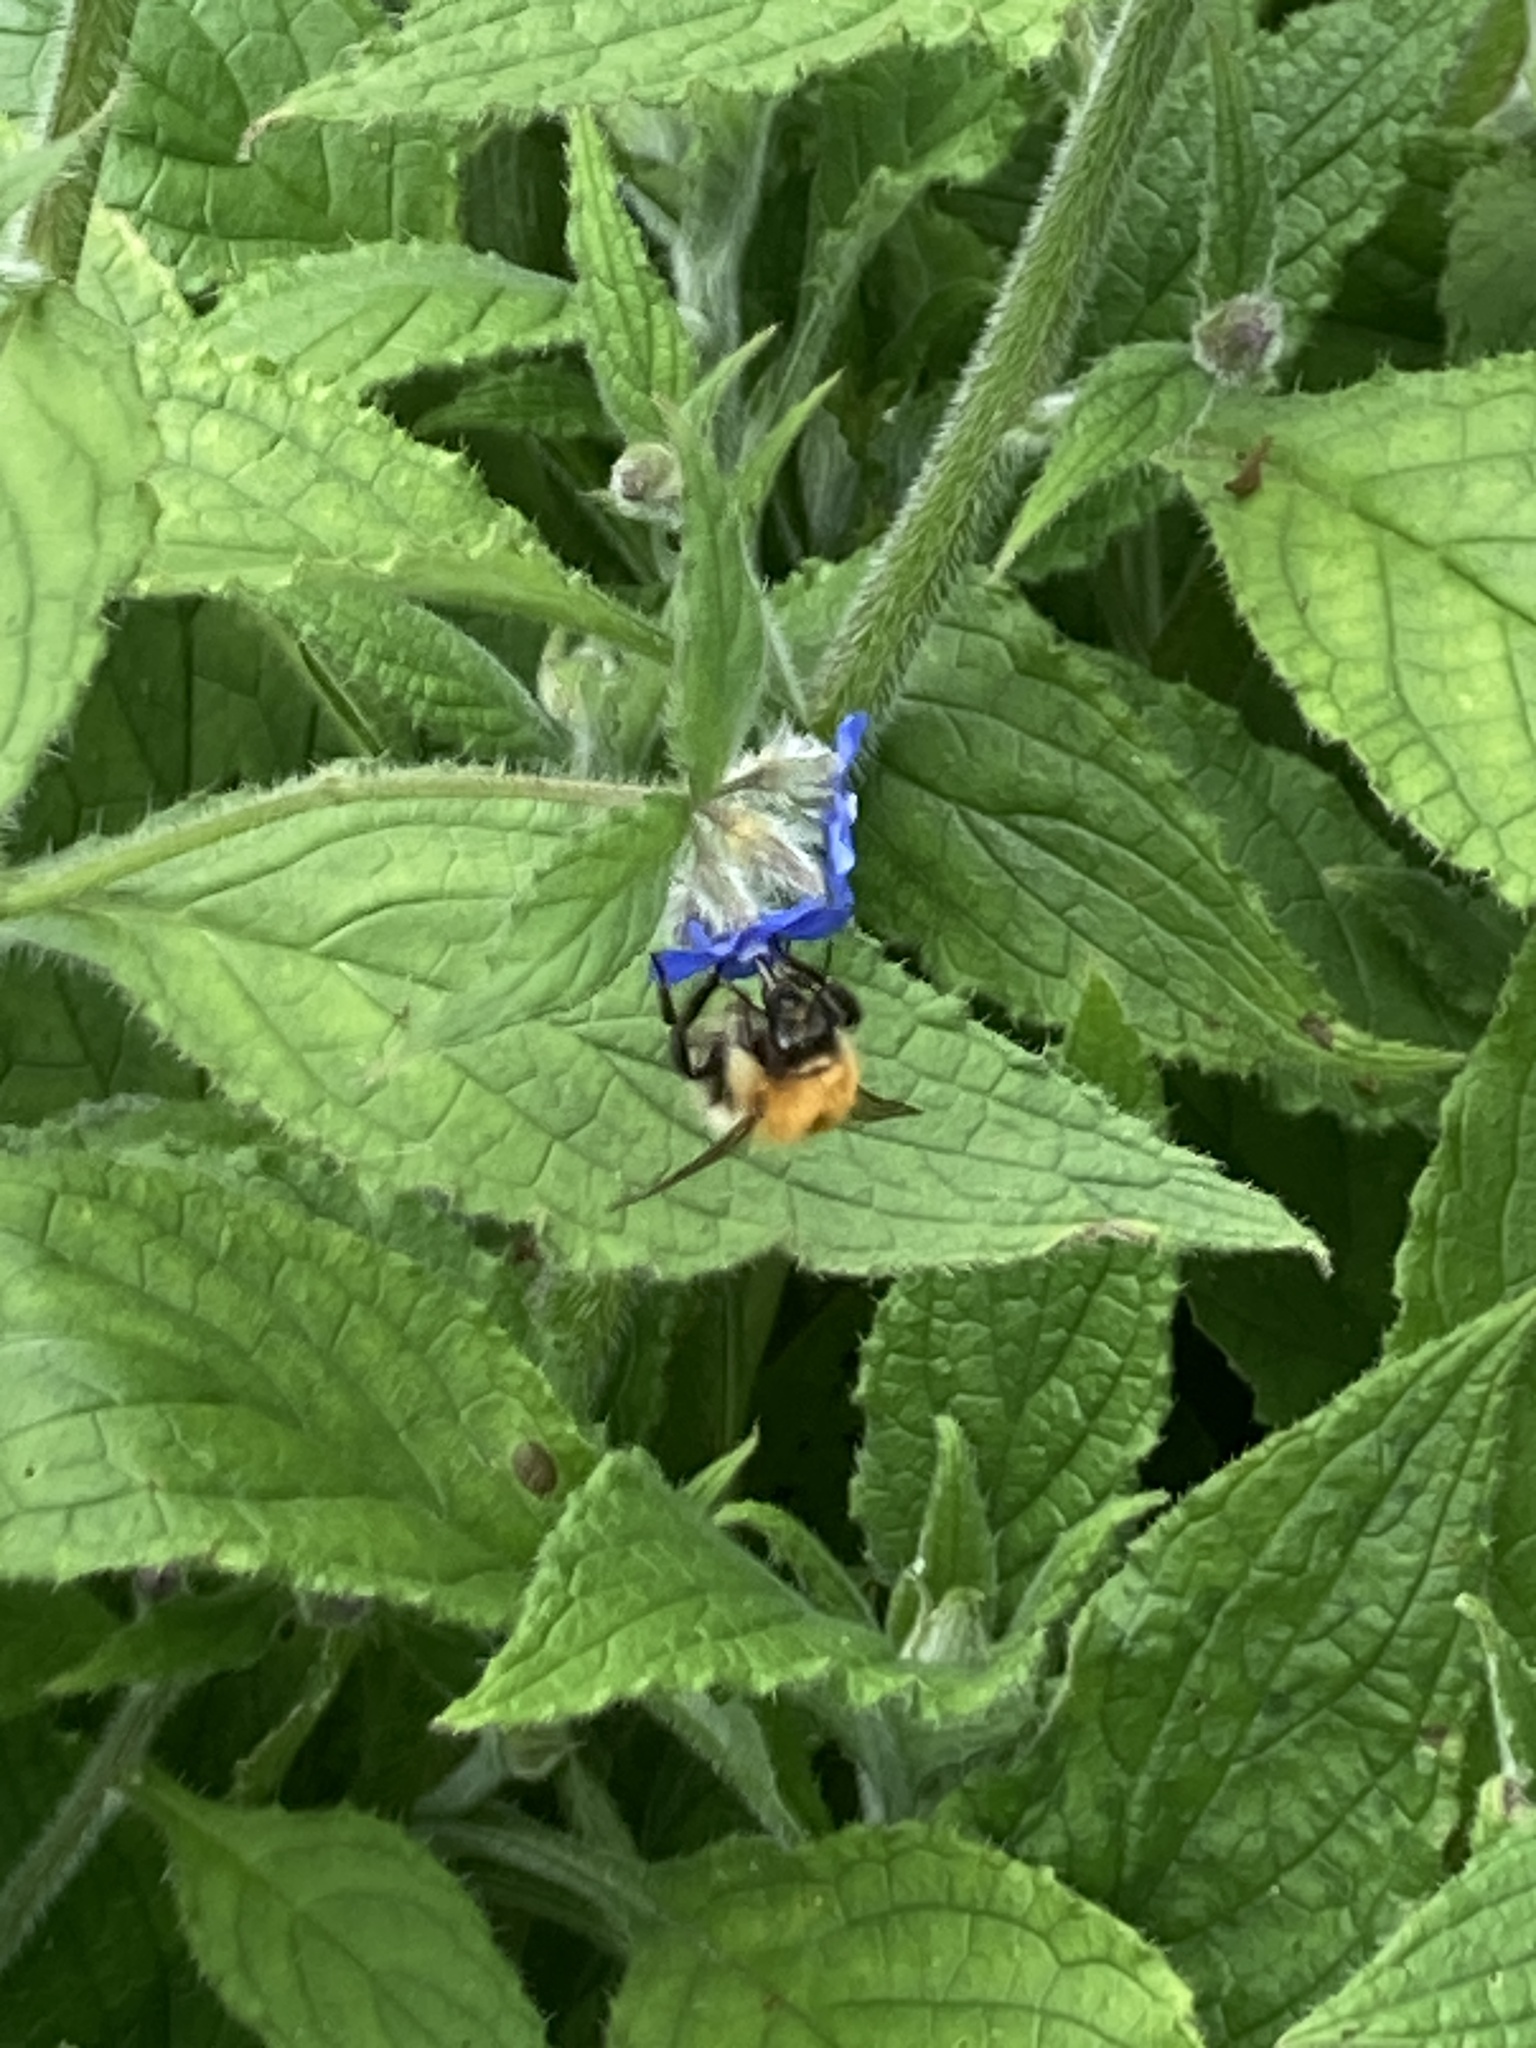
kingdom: Animalia
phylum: Arthropoda
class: Insecta
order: Hymenoptera
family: Apidae
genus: Bombus
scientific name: Bombus pascuorum
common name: Common carder bee
